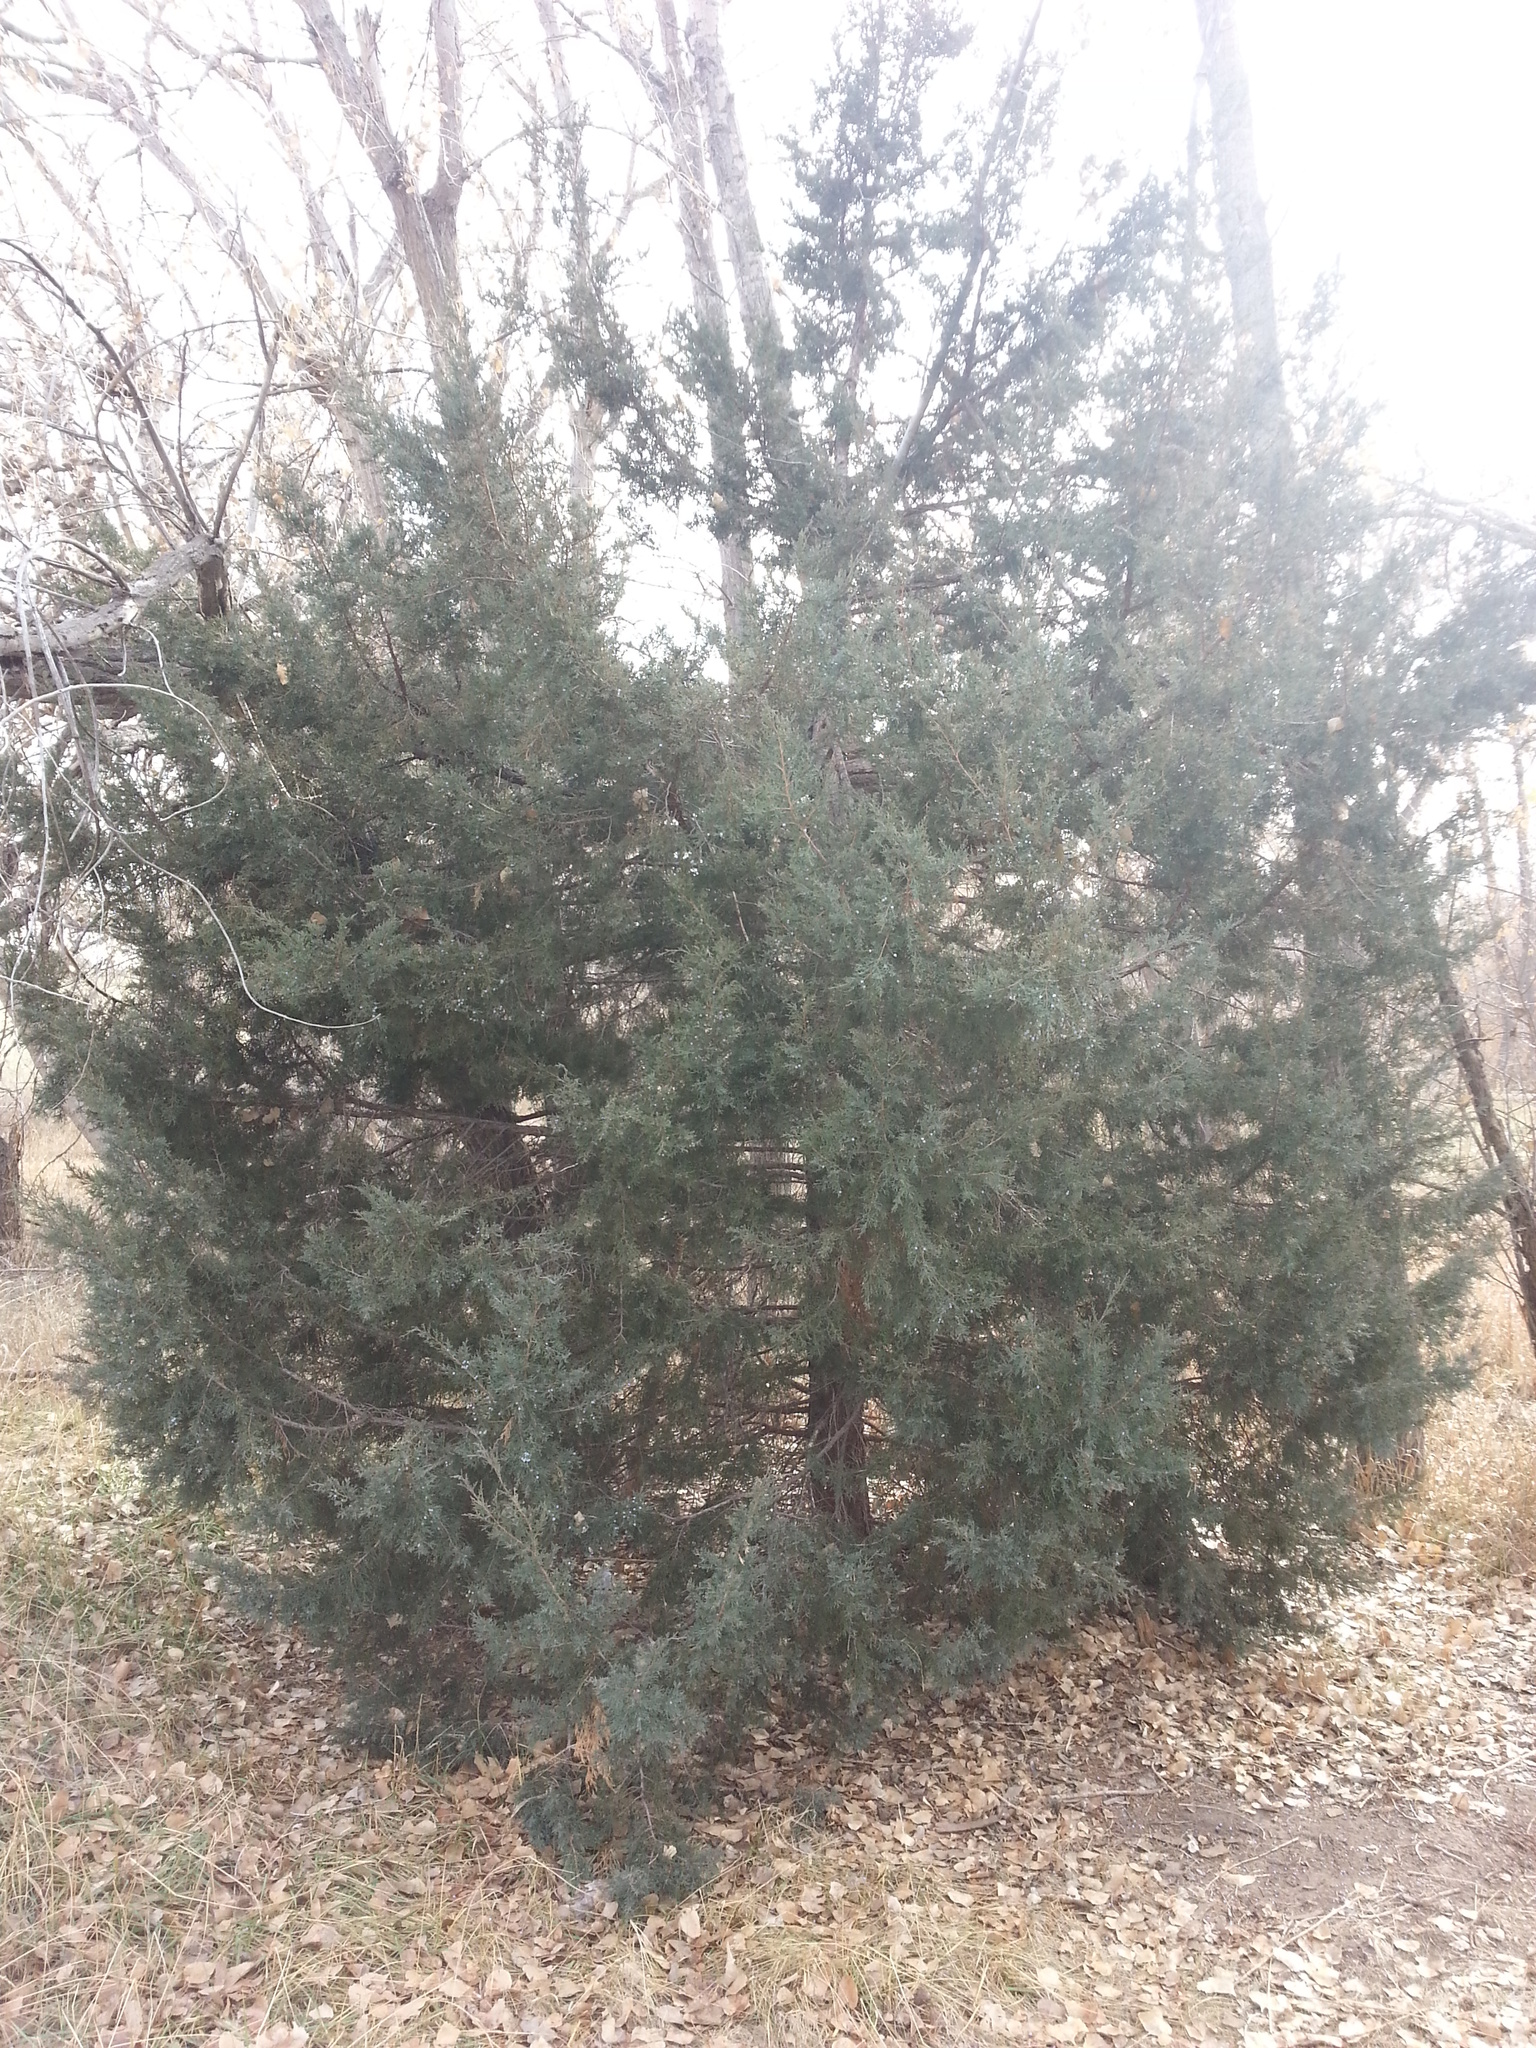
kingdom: Plantae
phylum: Tracheophyta
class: Pinopsida
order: Pinales
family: Cupressaceae
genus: Juniperus
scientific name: Juniperus scopulorum
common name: Rocky mountain juniper
